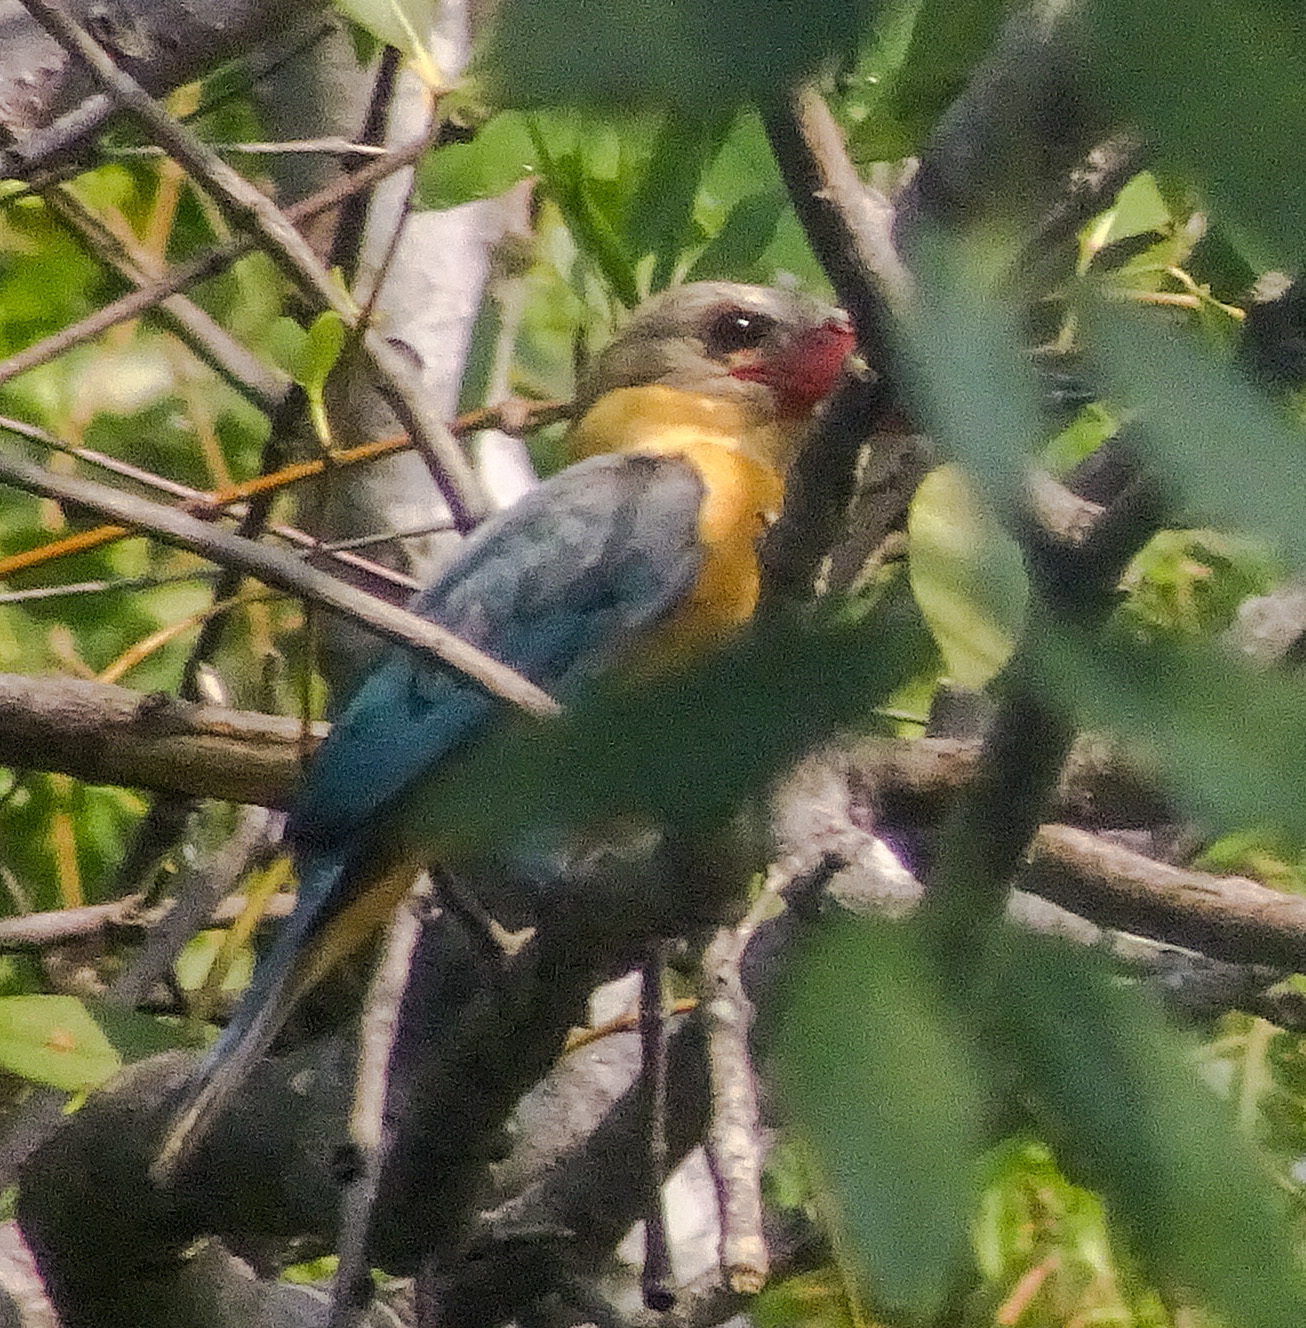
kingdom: Animalia
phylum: Chordata
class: Aves
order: Coraciiformes
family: Alcedinidae
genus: Pelargopsis
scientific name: Pelargopsis capensis
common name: Stork-billed kingfisher
